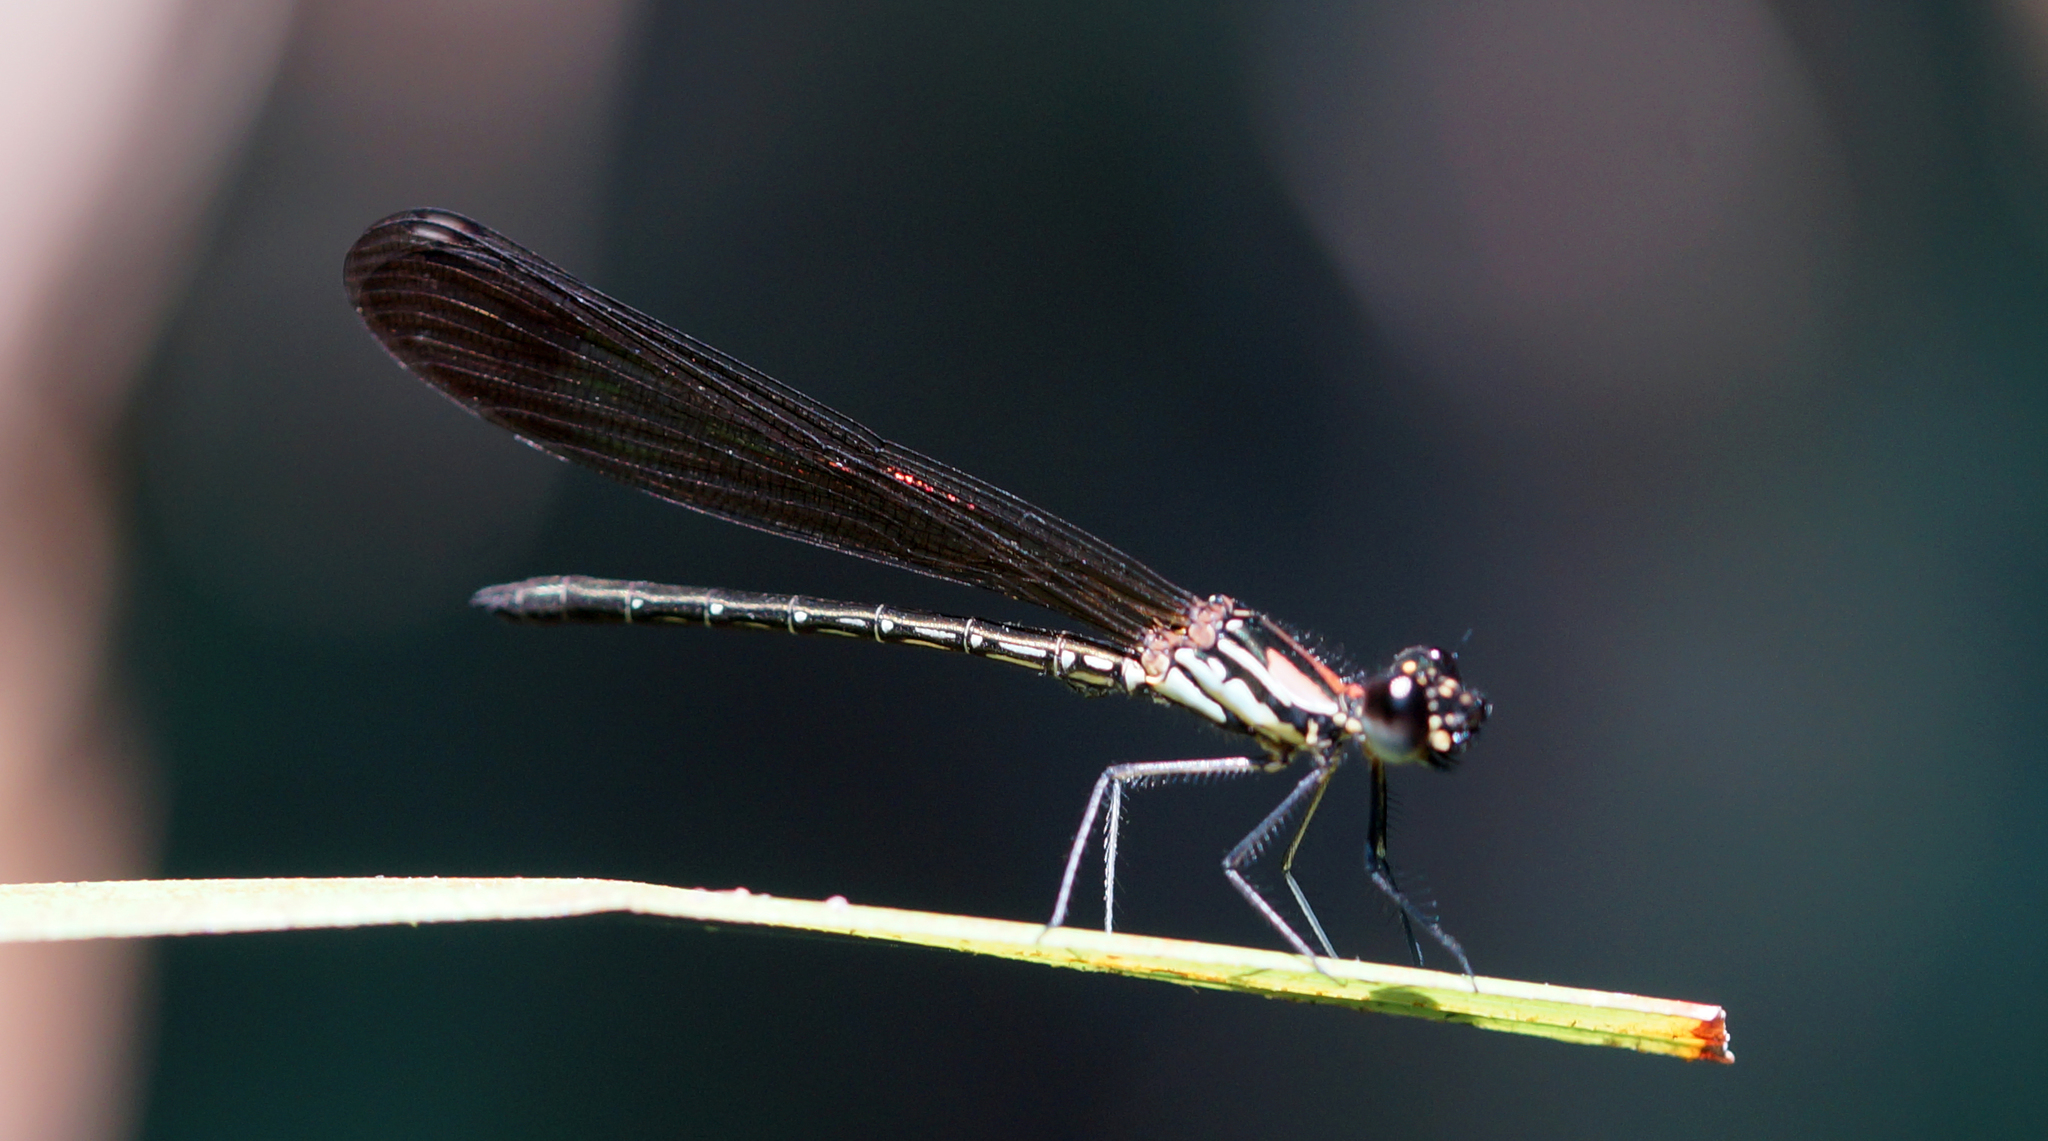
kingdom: Animalia
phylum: Arthropoda
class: Insecta
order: Odonata
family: Chlorocyphidae
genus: Heliocypha
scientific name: Heliocypha biforata
